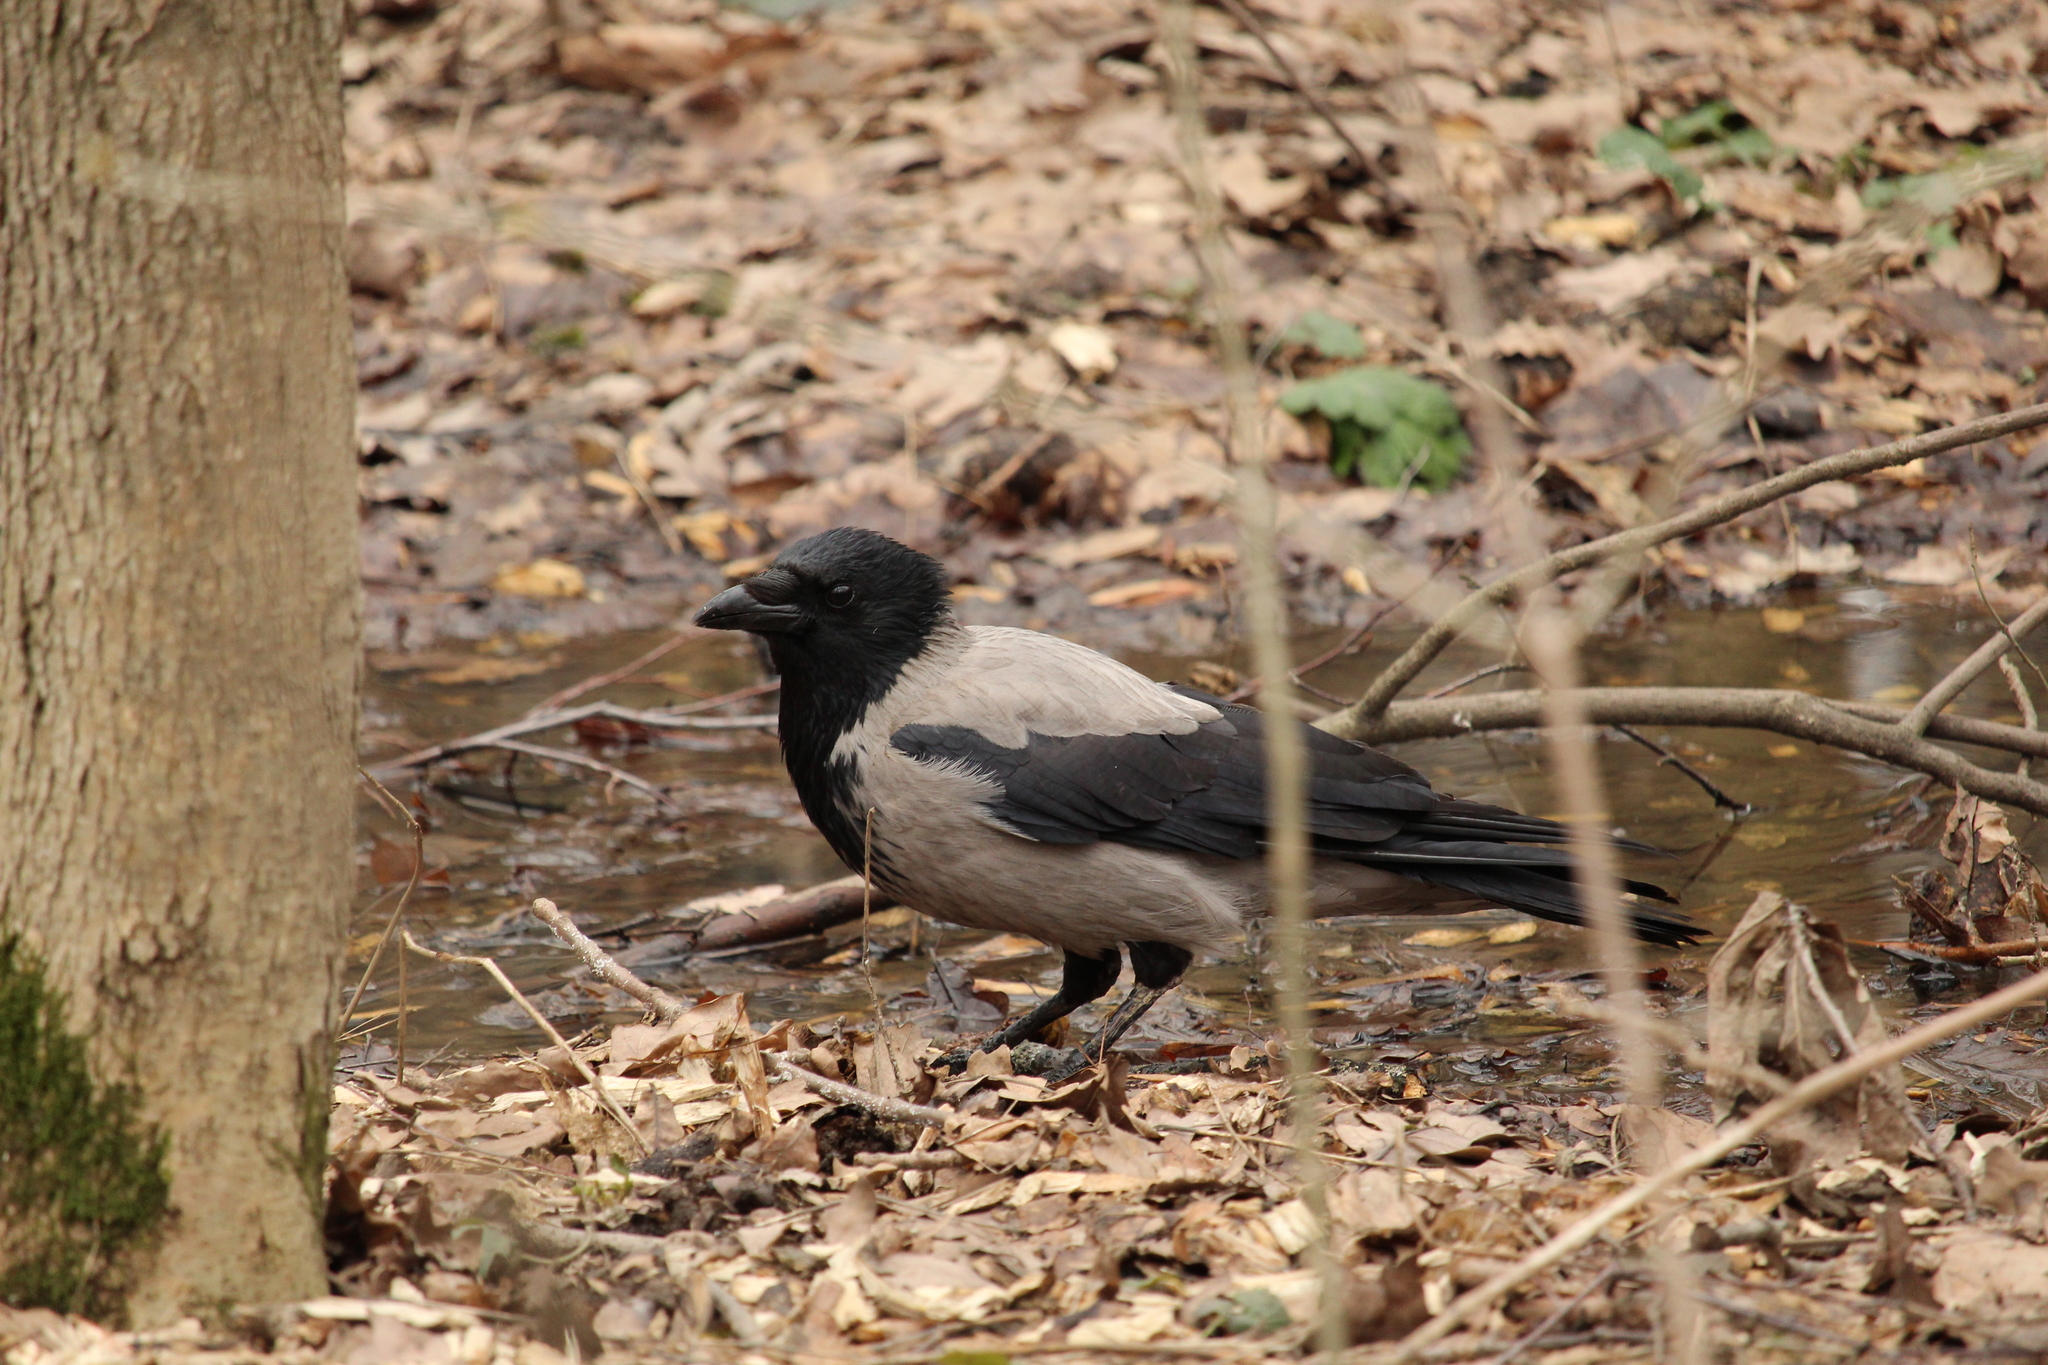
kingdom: Animalia
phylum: Chordata
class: Aves
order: Passeriformes
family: Corvidae
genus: Corvus
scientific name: Corvus cornix
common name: Hooded crow
